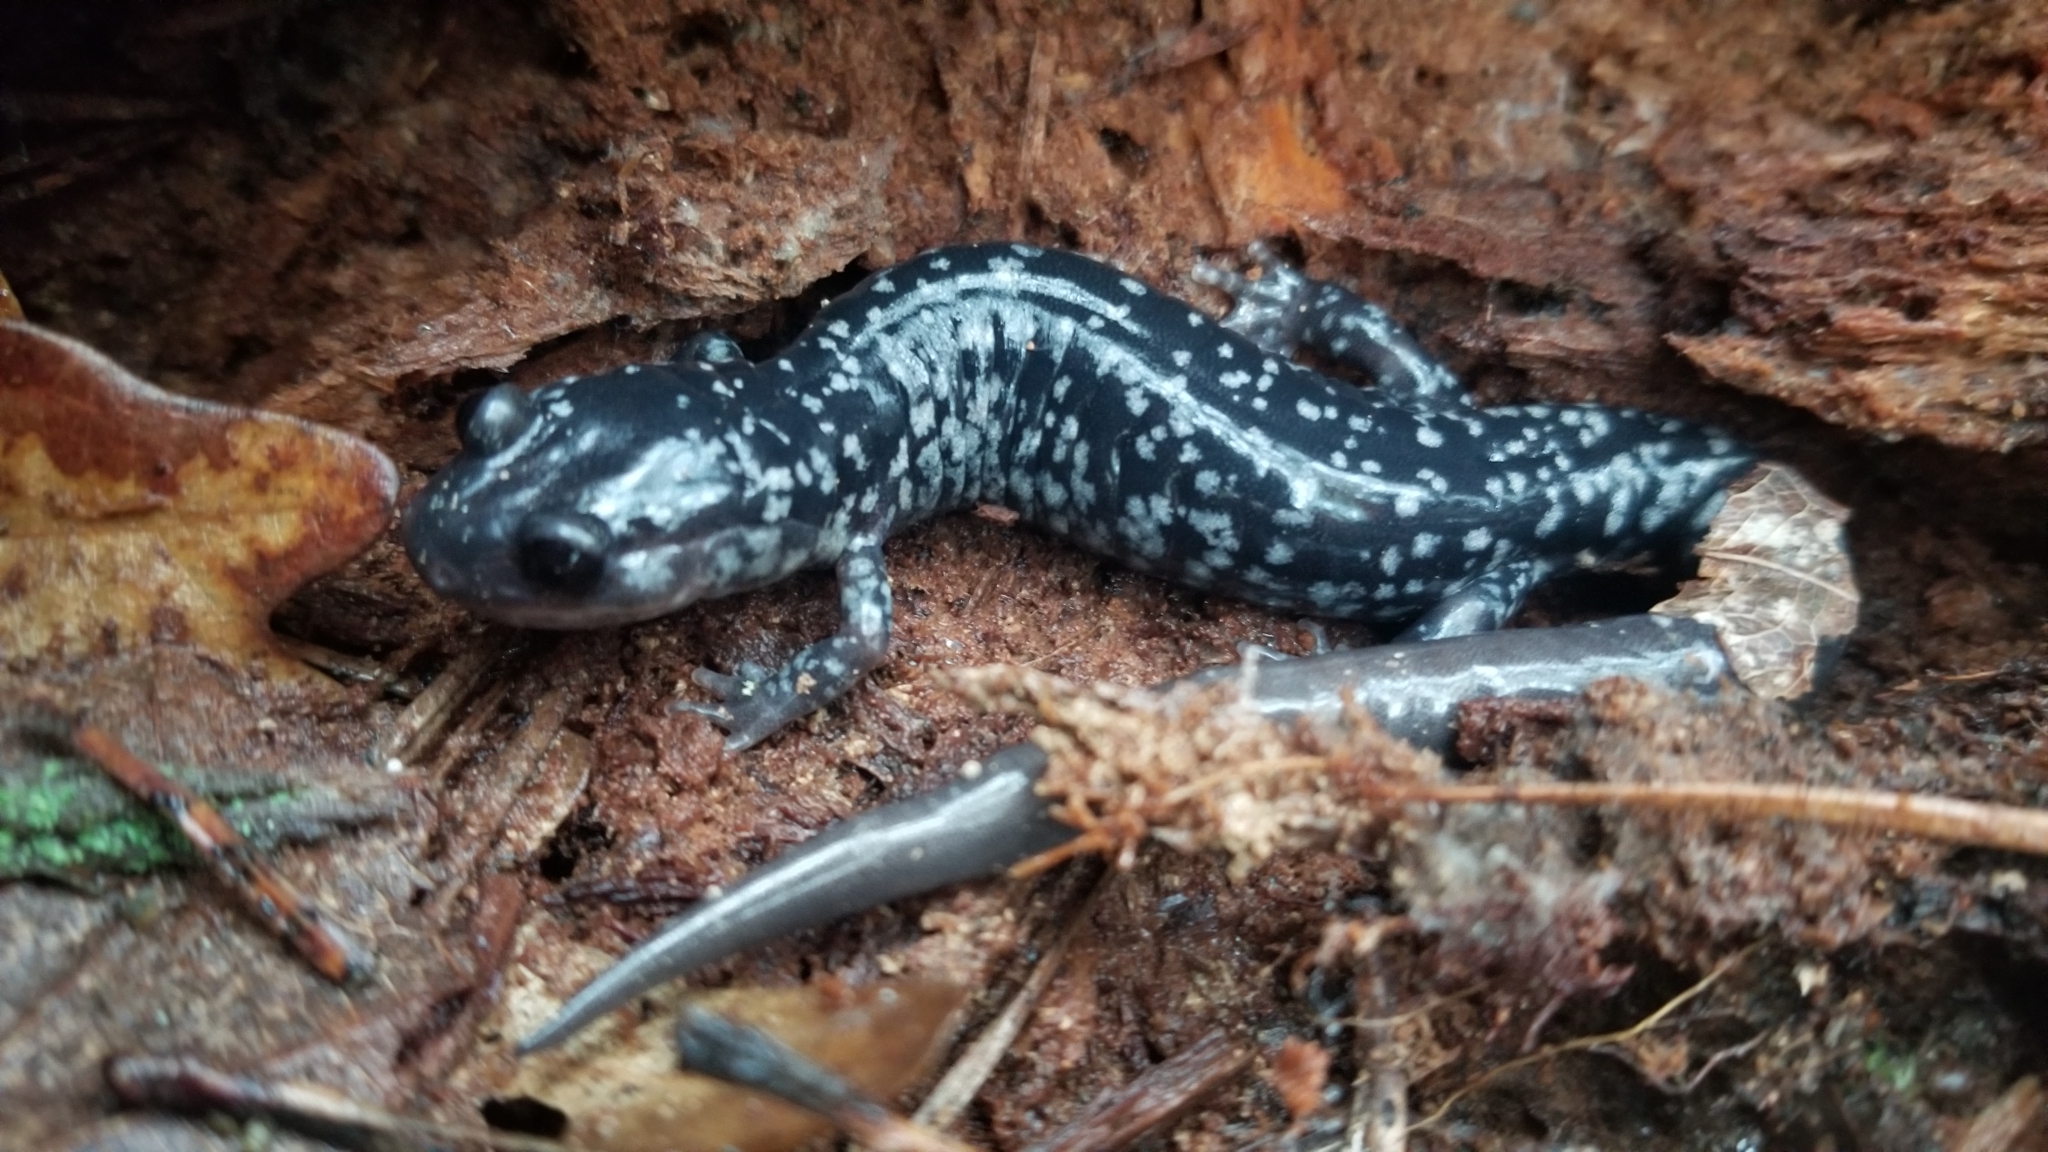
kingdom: Animalia
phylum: Chordata
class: Amphibia
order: Caudata
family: Plethodontidae
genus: Plethodon
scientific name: Plethodon cylindraceus
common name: White-spotted slimy salamander
